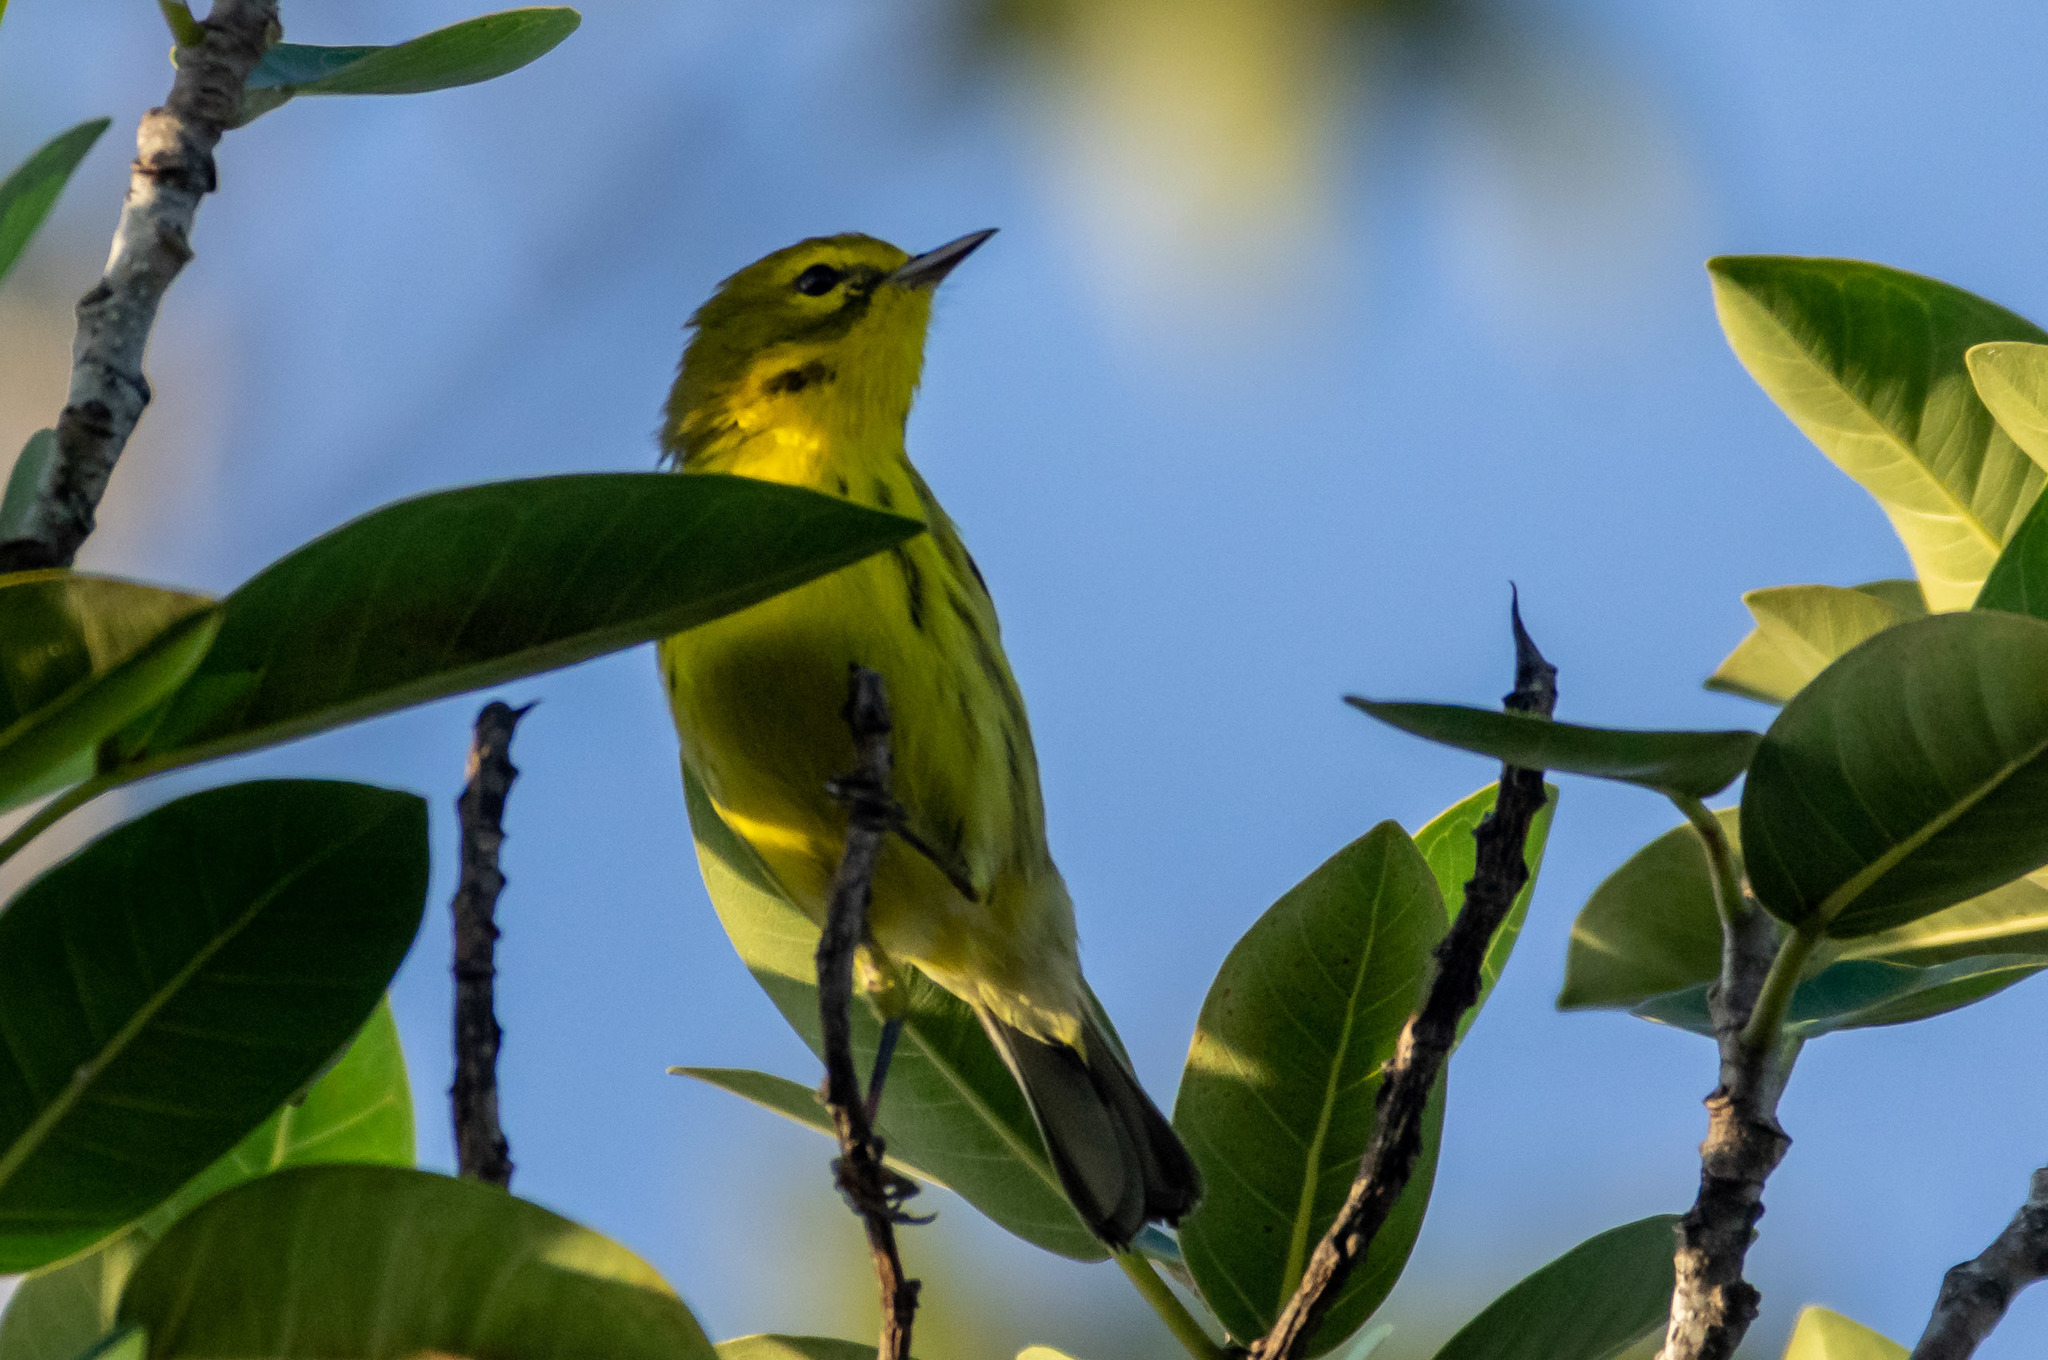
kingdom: Animalia
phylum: Chordata
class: Aves
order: Passeriformes
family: Parulidae
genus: Setophaga
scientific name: Setophaga discolor
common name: Prairie warbler
